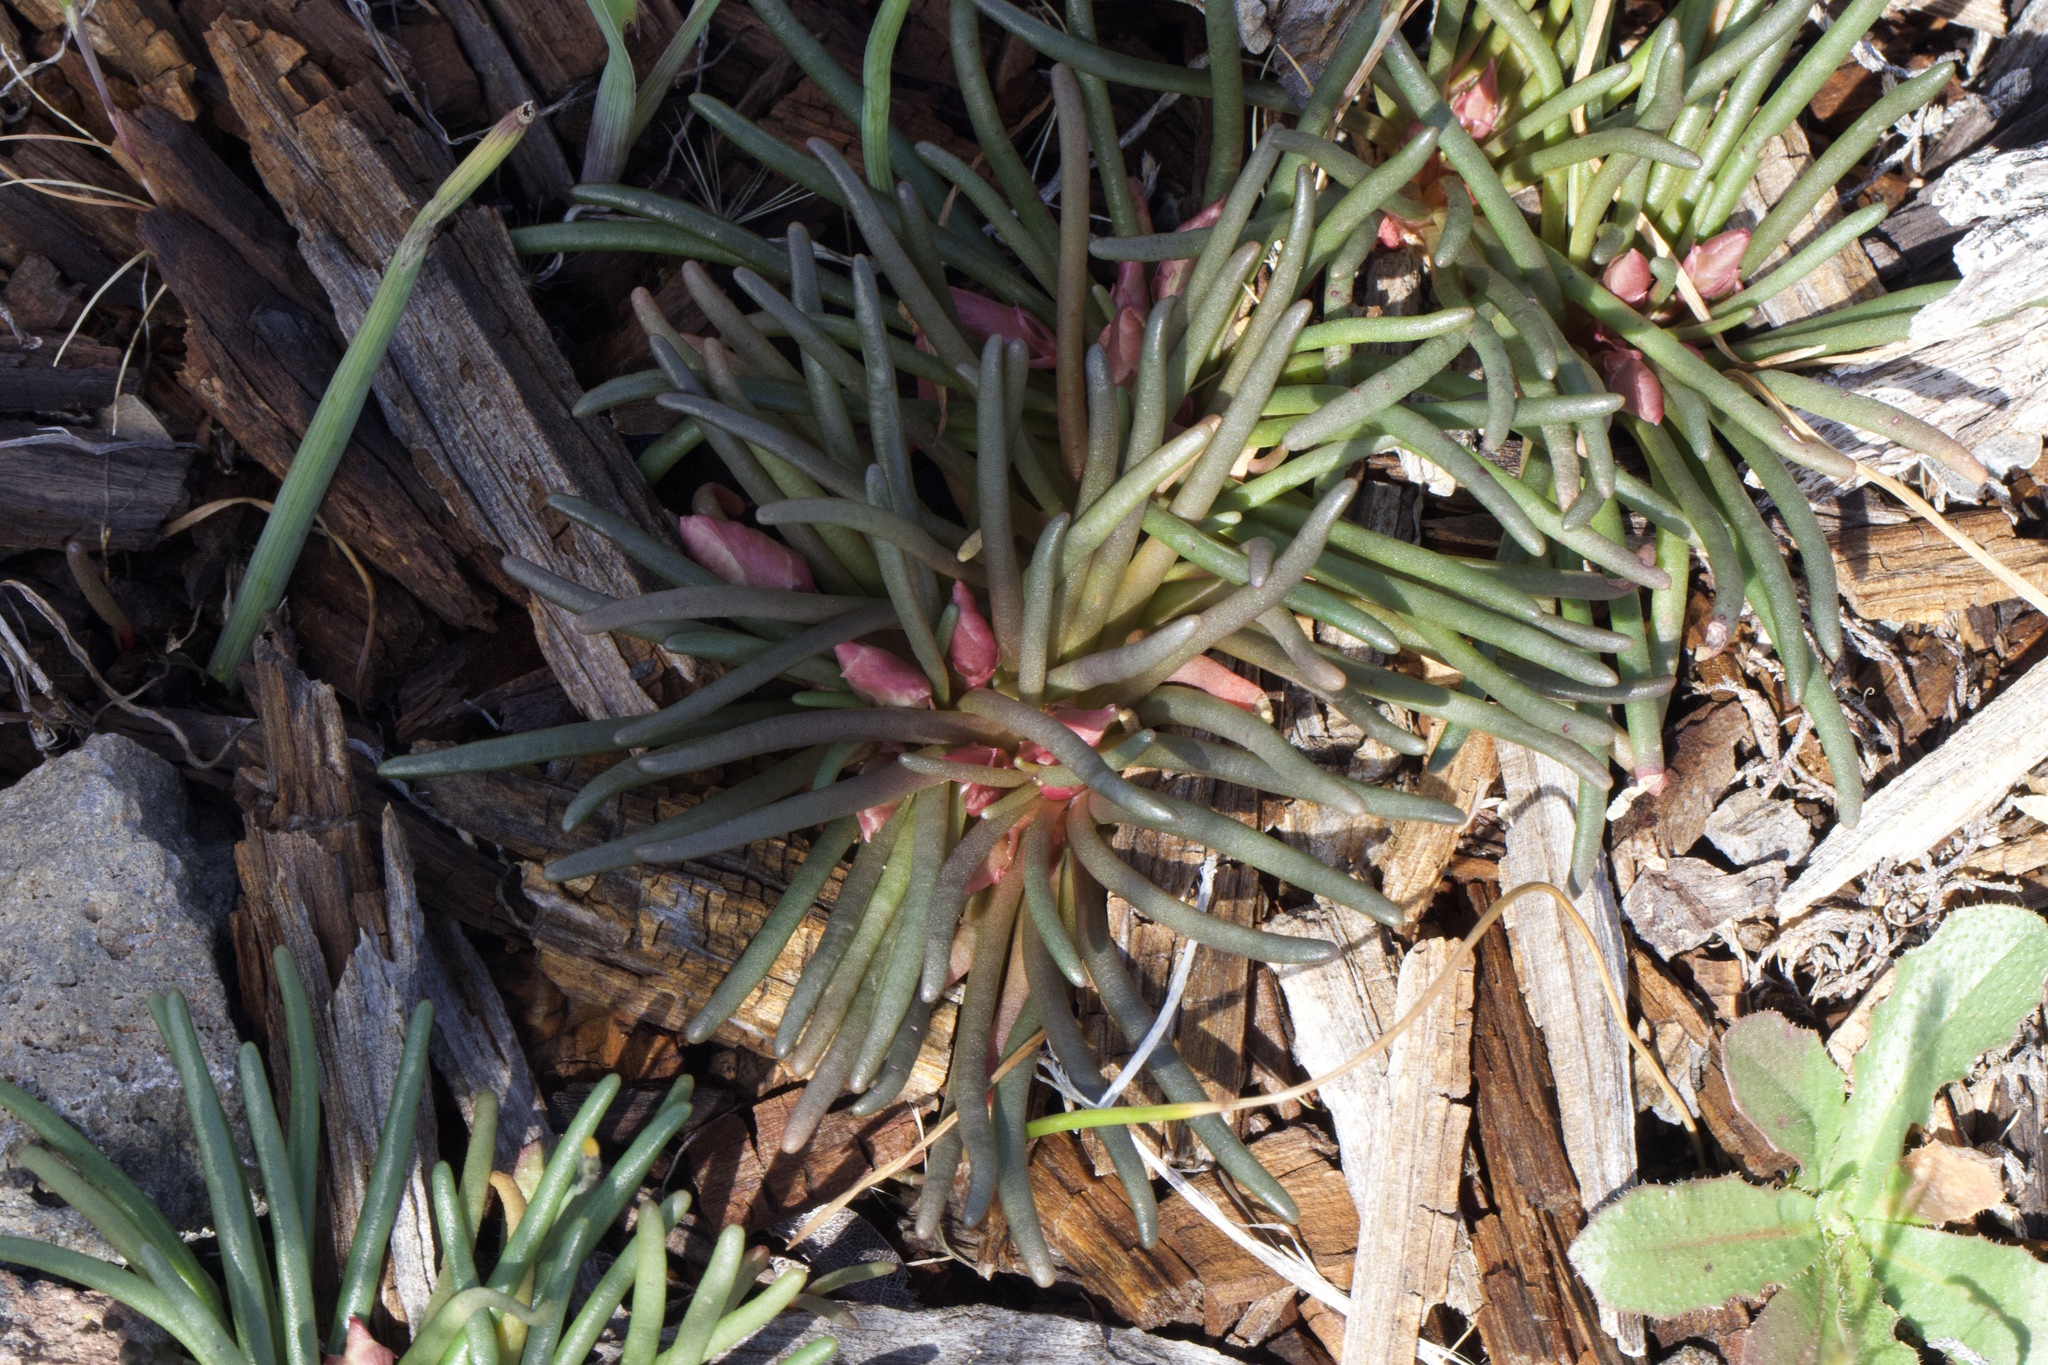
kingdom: Plantae
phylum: Tracheophyta
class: Magnoliopsida
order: Caryophyllales
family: Montiaceae
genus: Lewisia
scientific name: Lewisia rediviva
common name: Bitter-root
